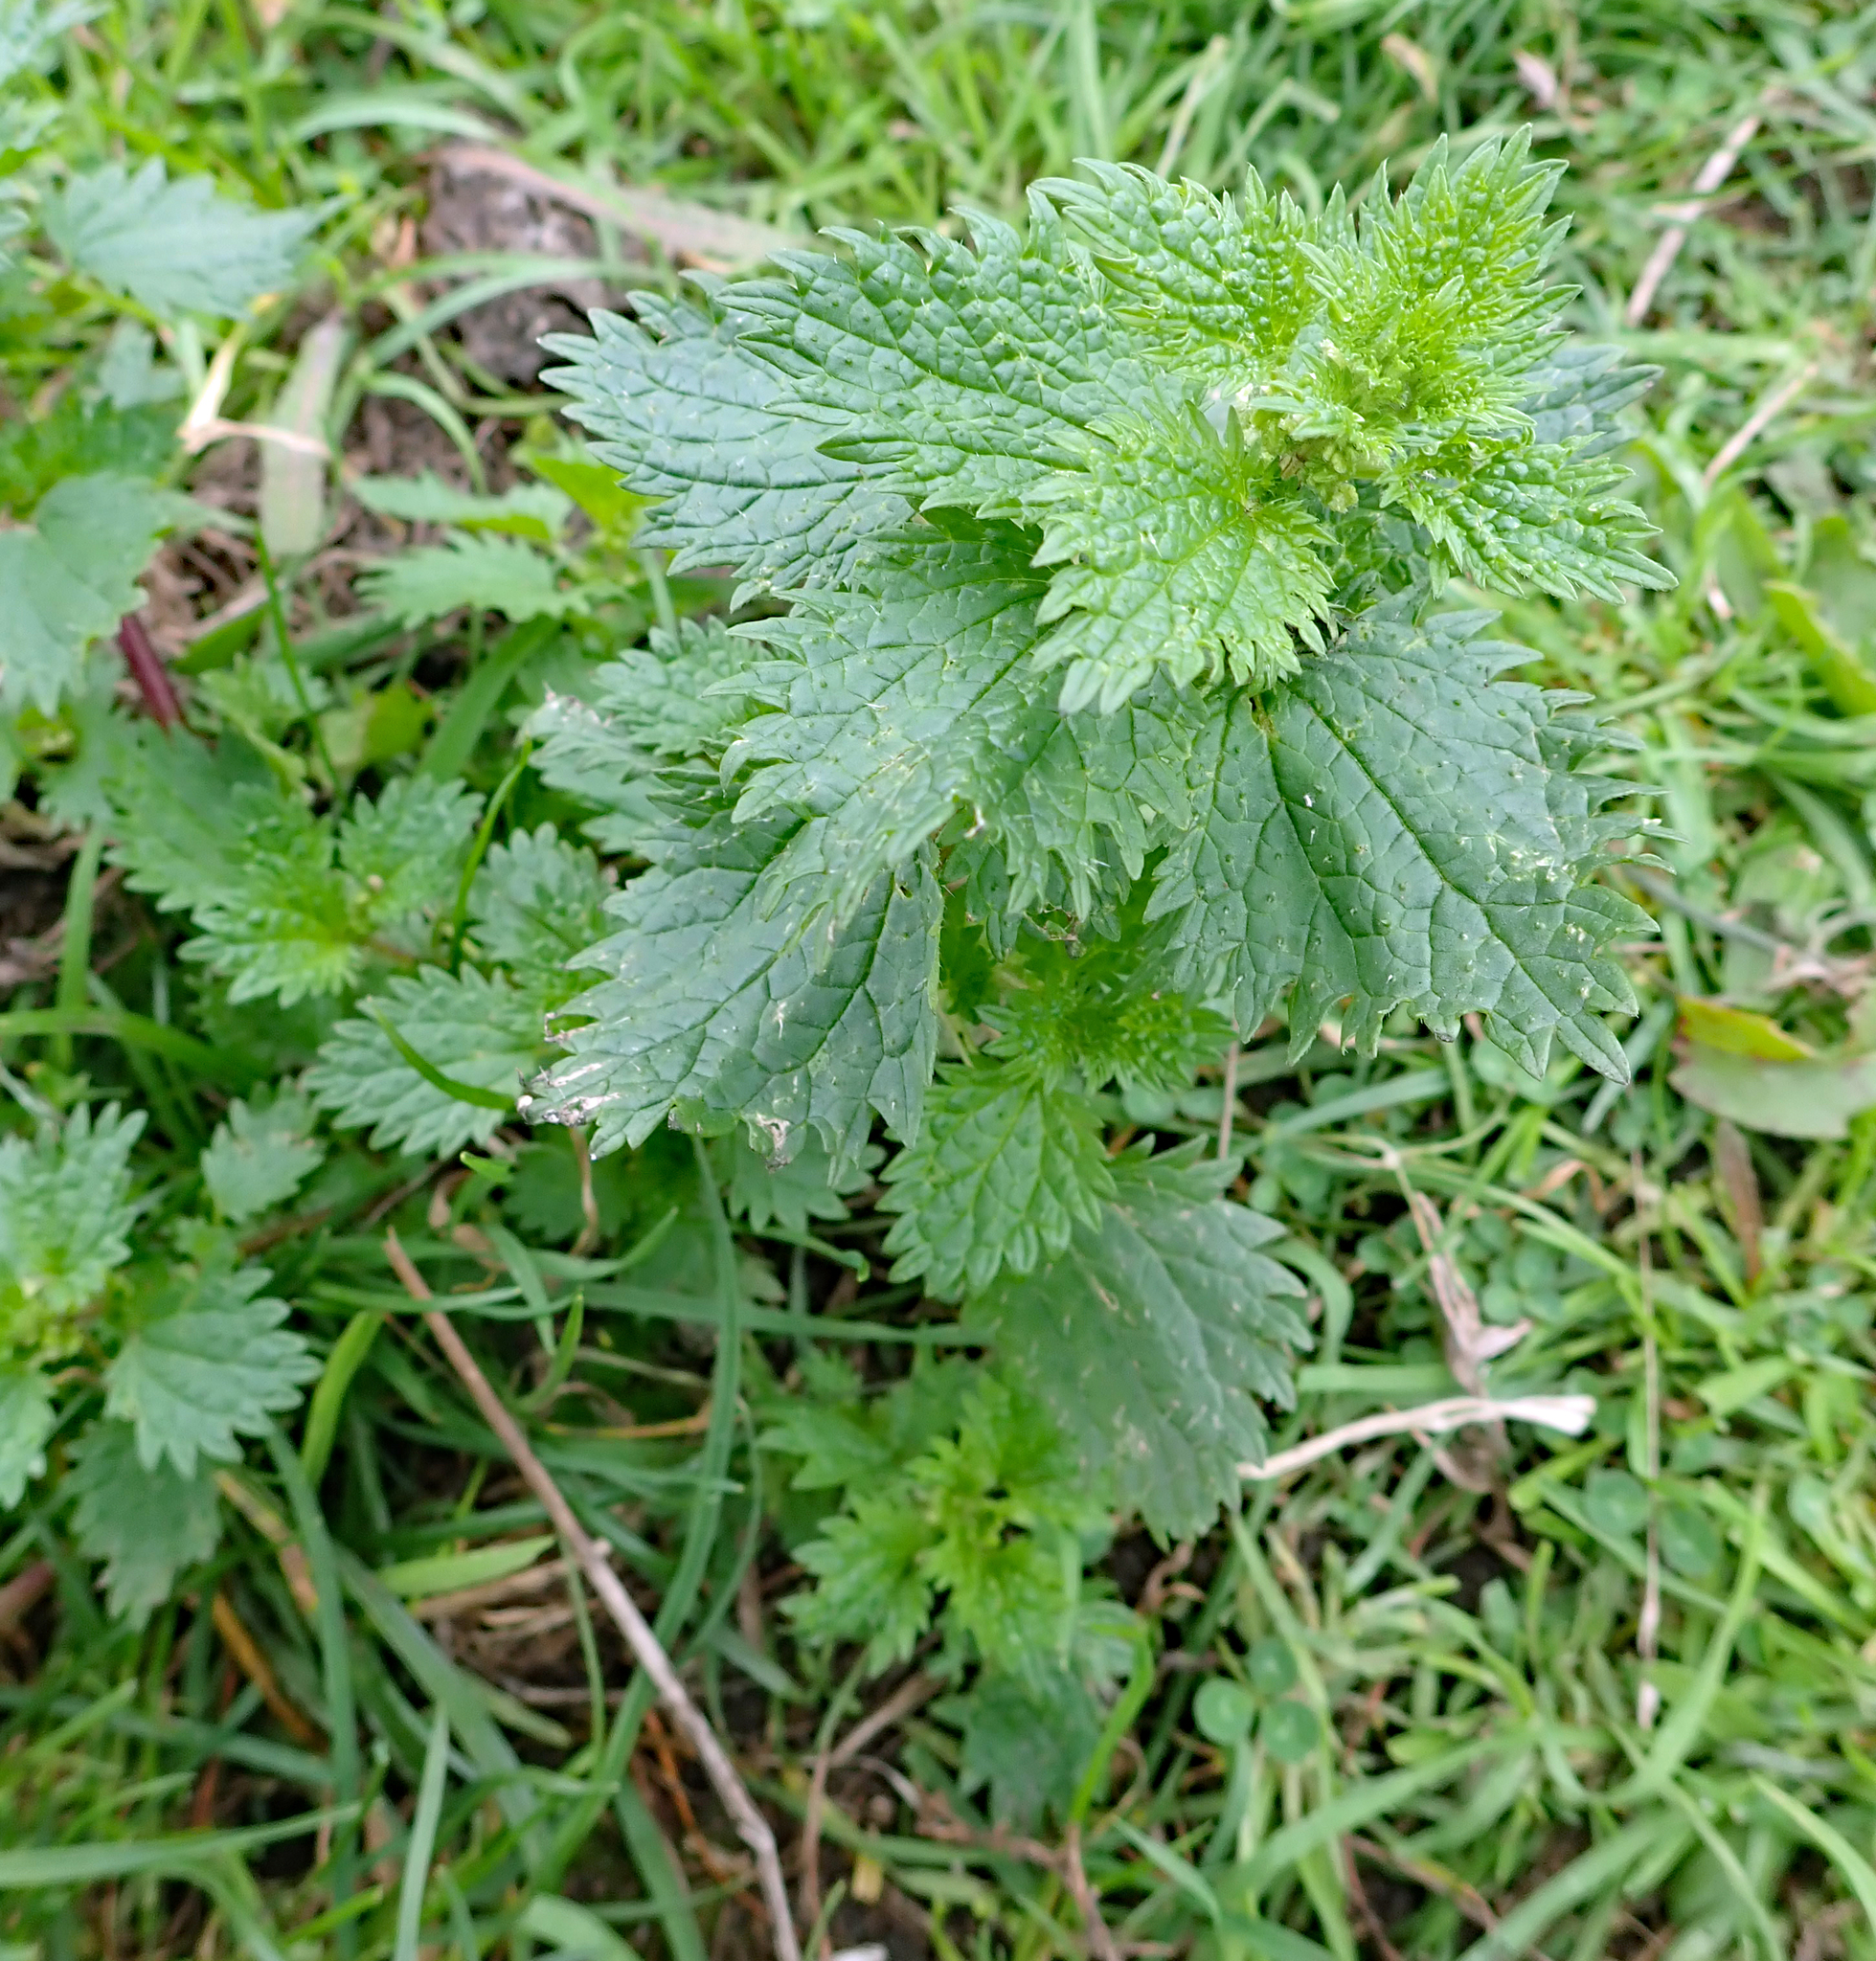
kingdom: Plantae
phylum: Tracheophyta
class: Magnoliopsida
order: Rosales
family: Urticaceae
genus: Urtica
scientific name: Urtica urens
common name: Dwarf nettle
